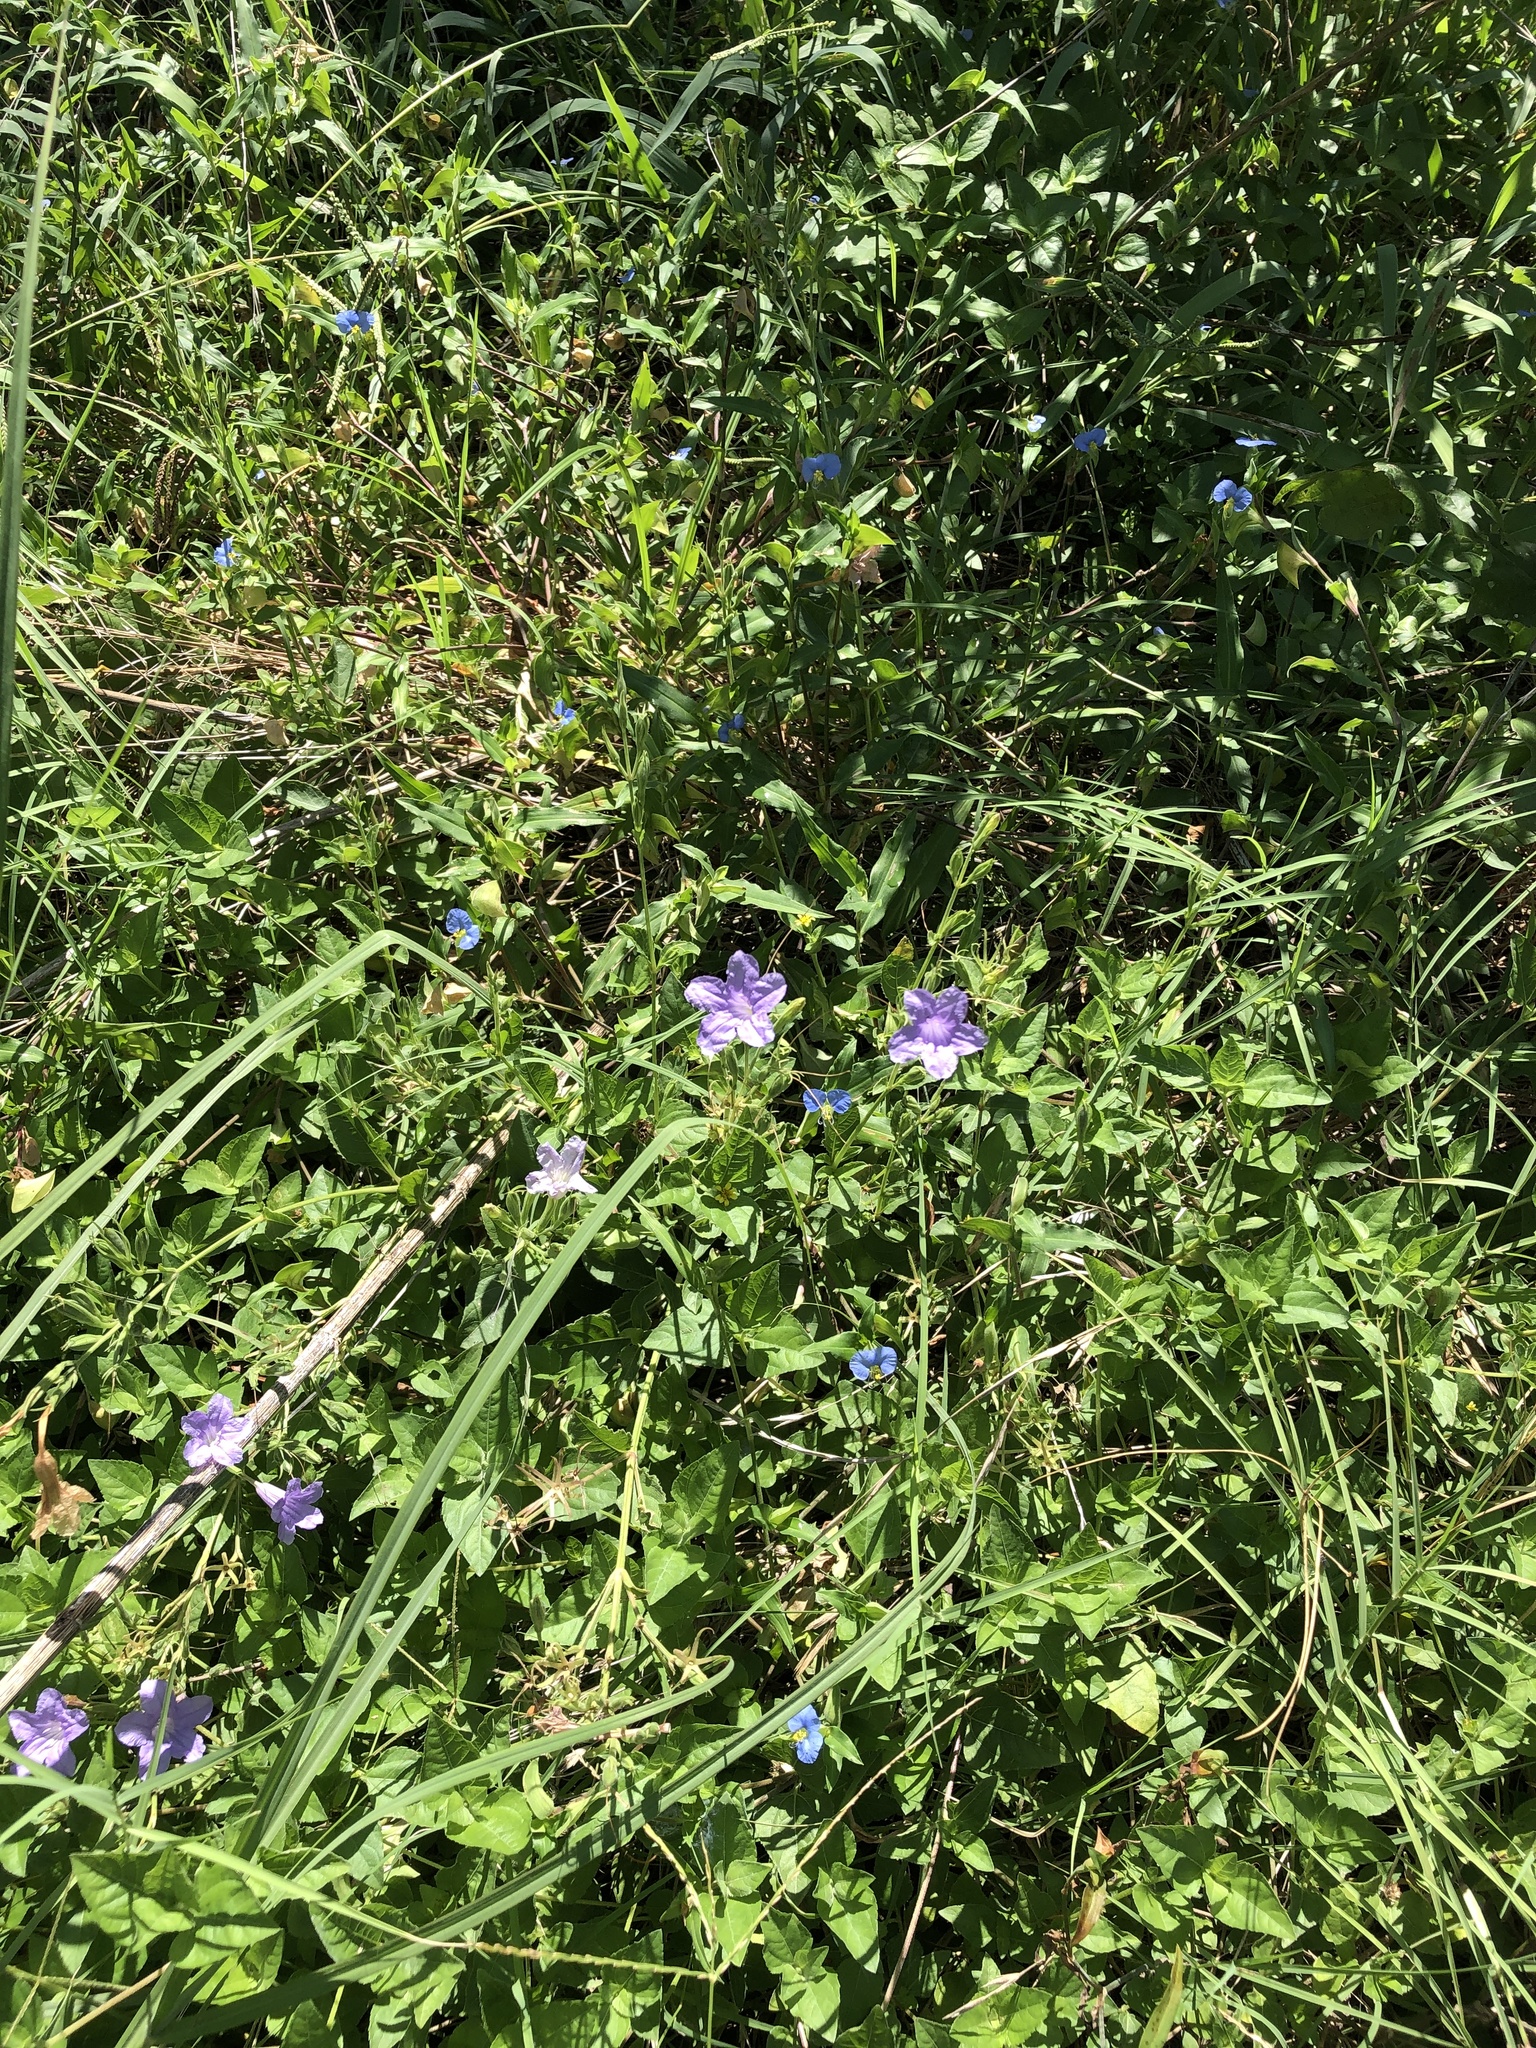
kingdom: Plantae
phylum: Tracheophyta
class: Magnoliopsida
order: Lamiales
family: Acanthaceae
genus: Ruellia
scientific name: Ruellia ciliatiflora
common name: Hairyflower wild petunia
